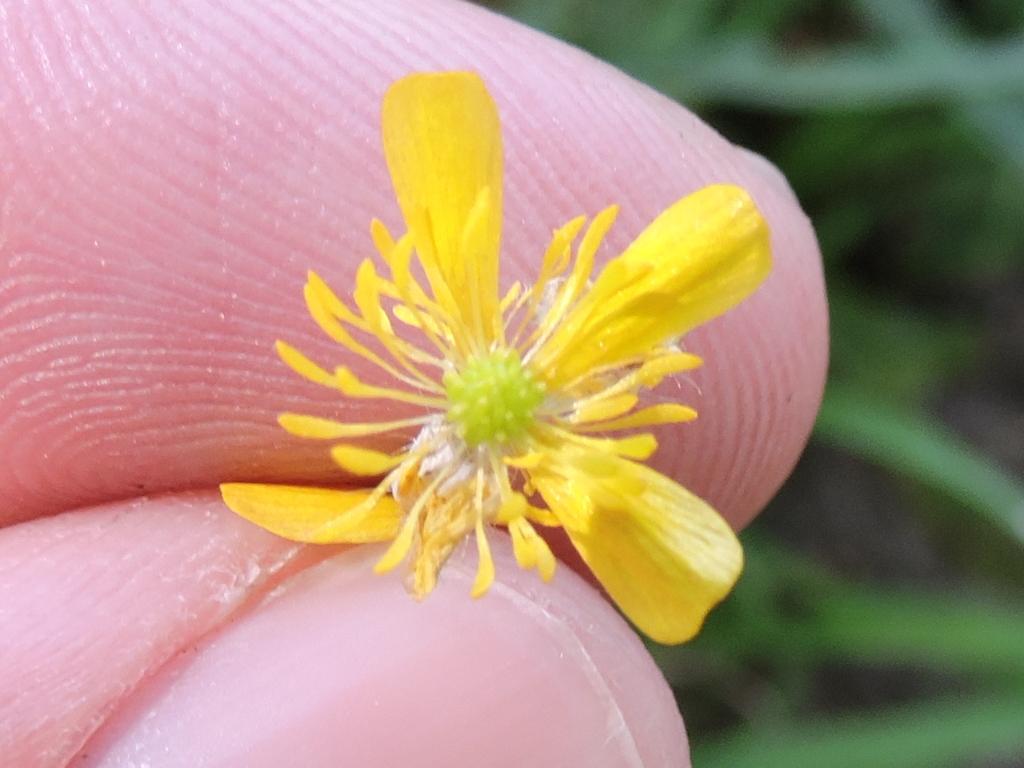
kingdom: Plantae
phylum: Tracheophyta
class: Magnoliopsida
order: Ranunculales
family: Ranunculaceae
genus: Ranunculus
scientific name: Ranunculus sardous
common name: Hairy buttercup
